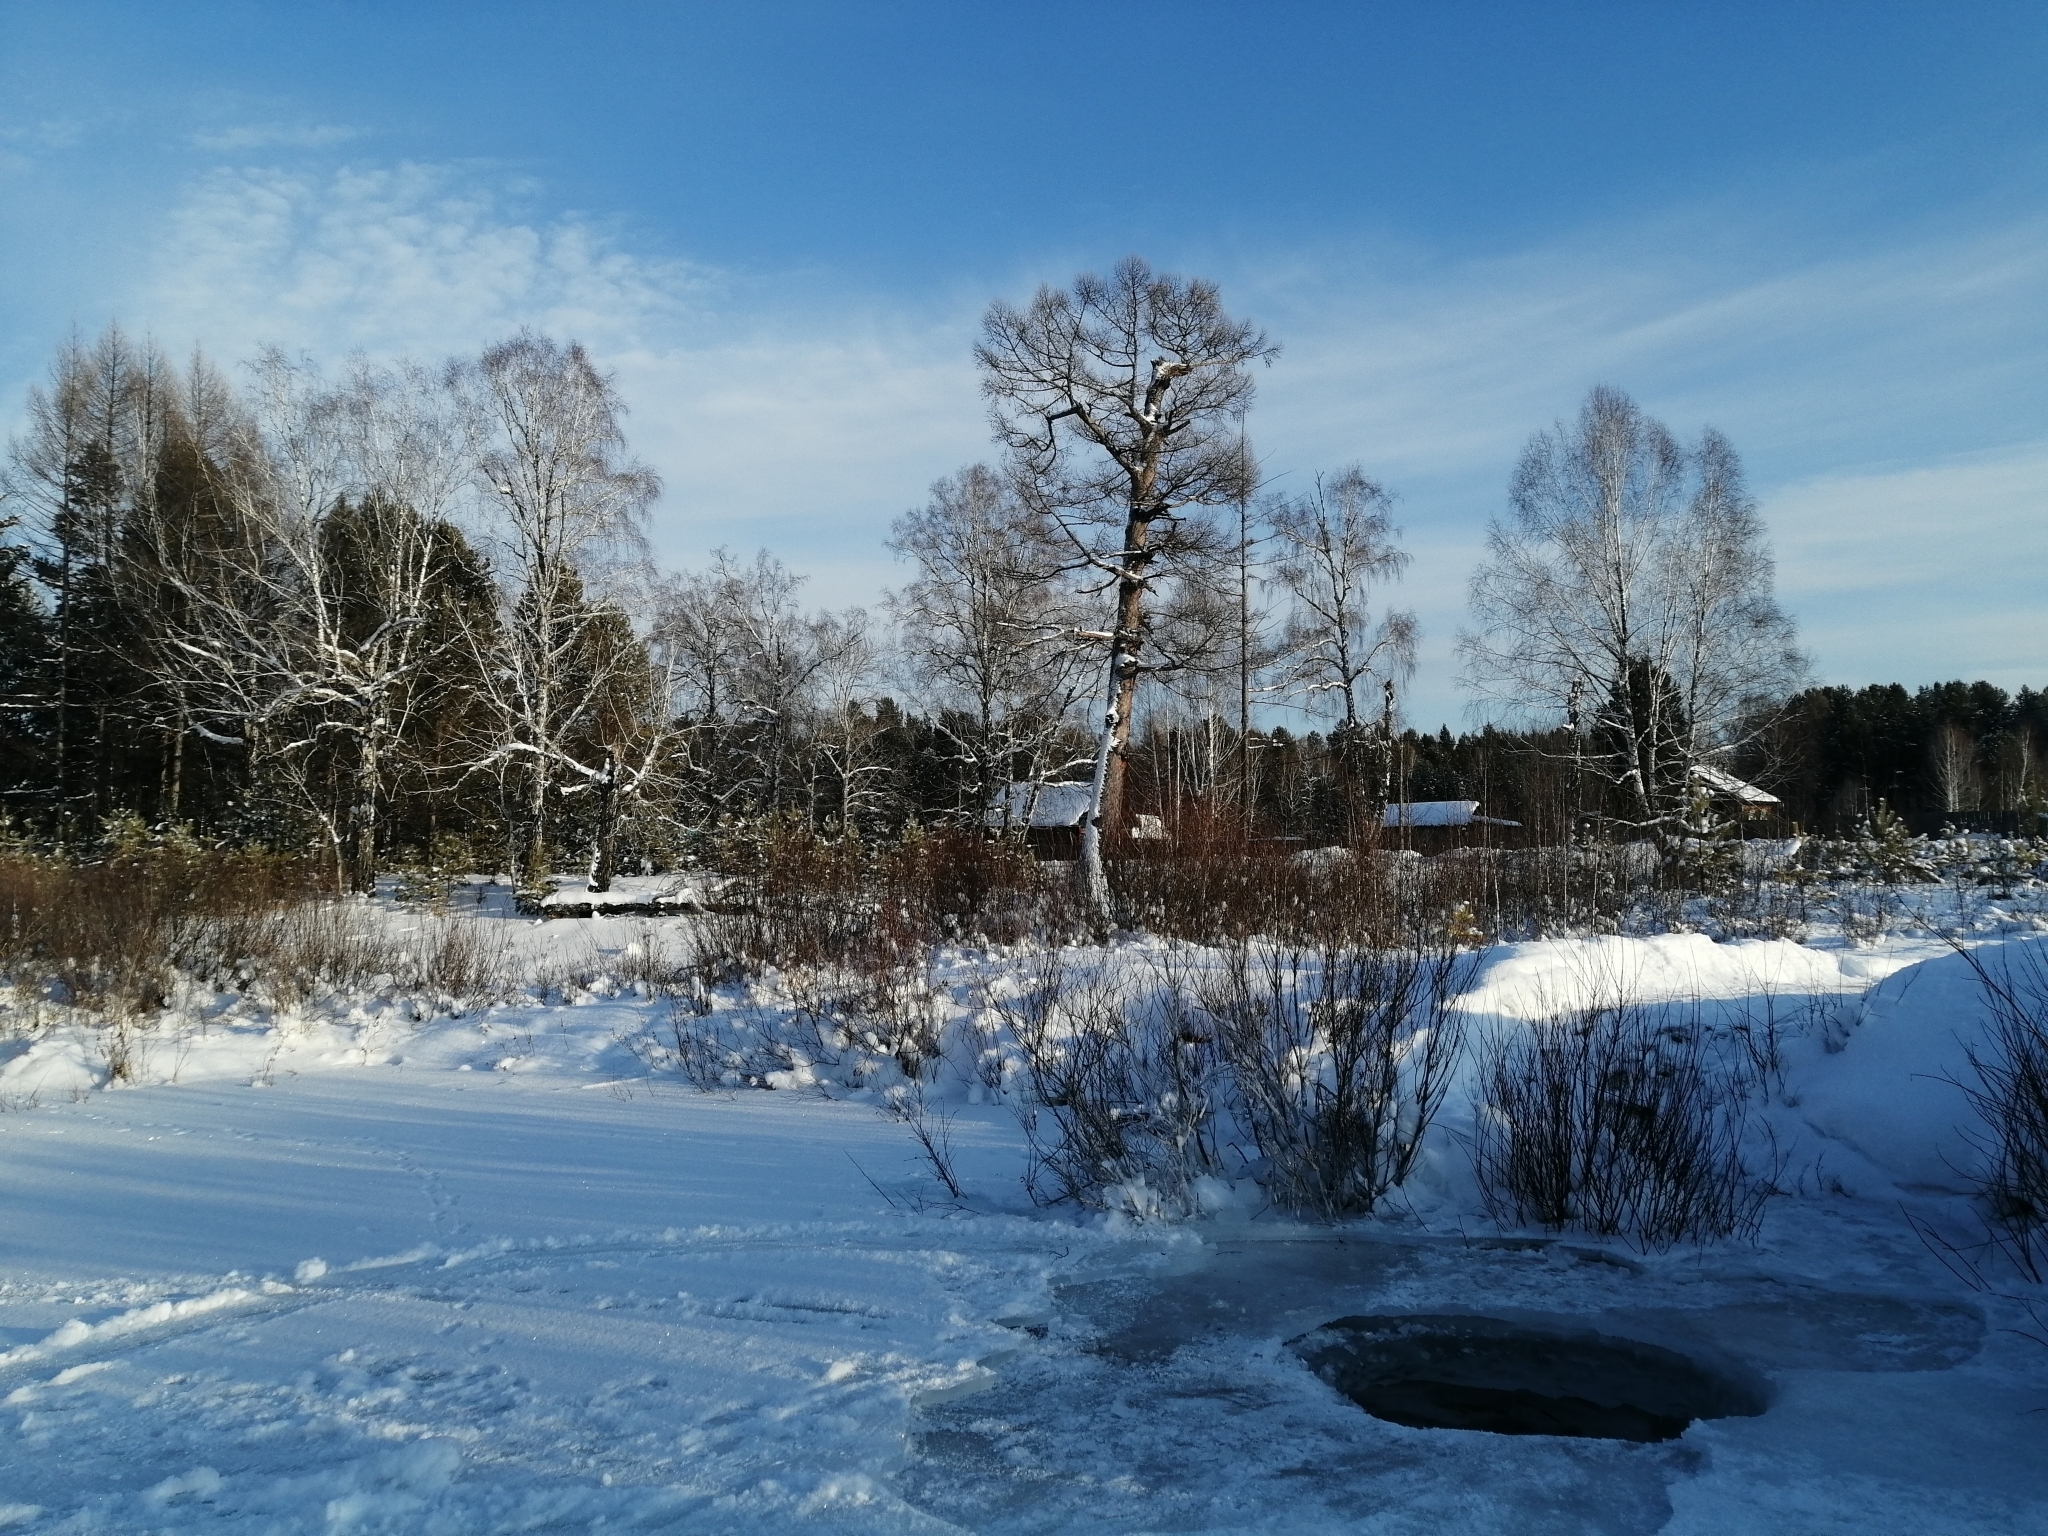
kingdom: Plantae
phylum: Tracheophyta
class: Pinopsida
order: Pinales
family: Pinaceae
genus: Larix
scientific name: Larix sibirica
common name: Siberian larch
